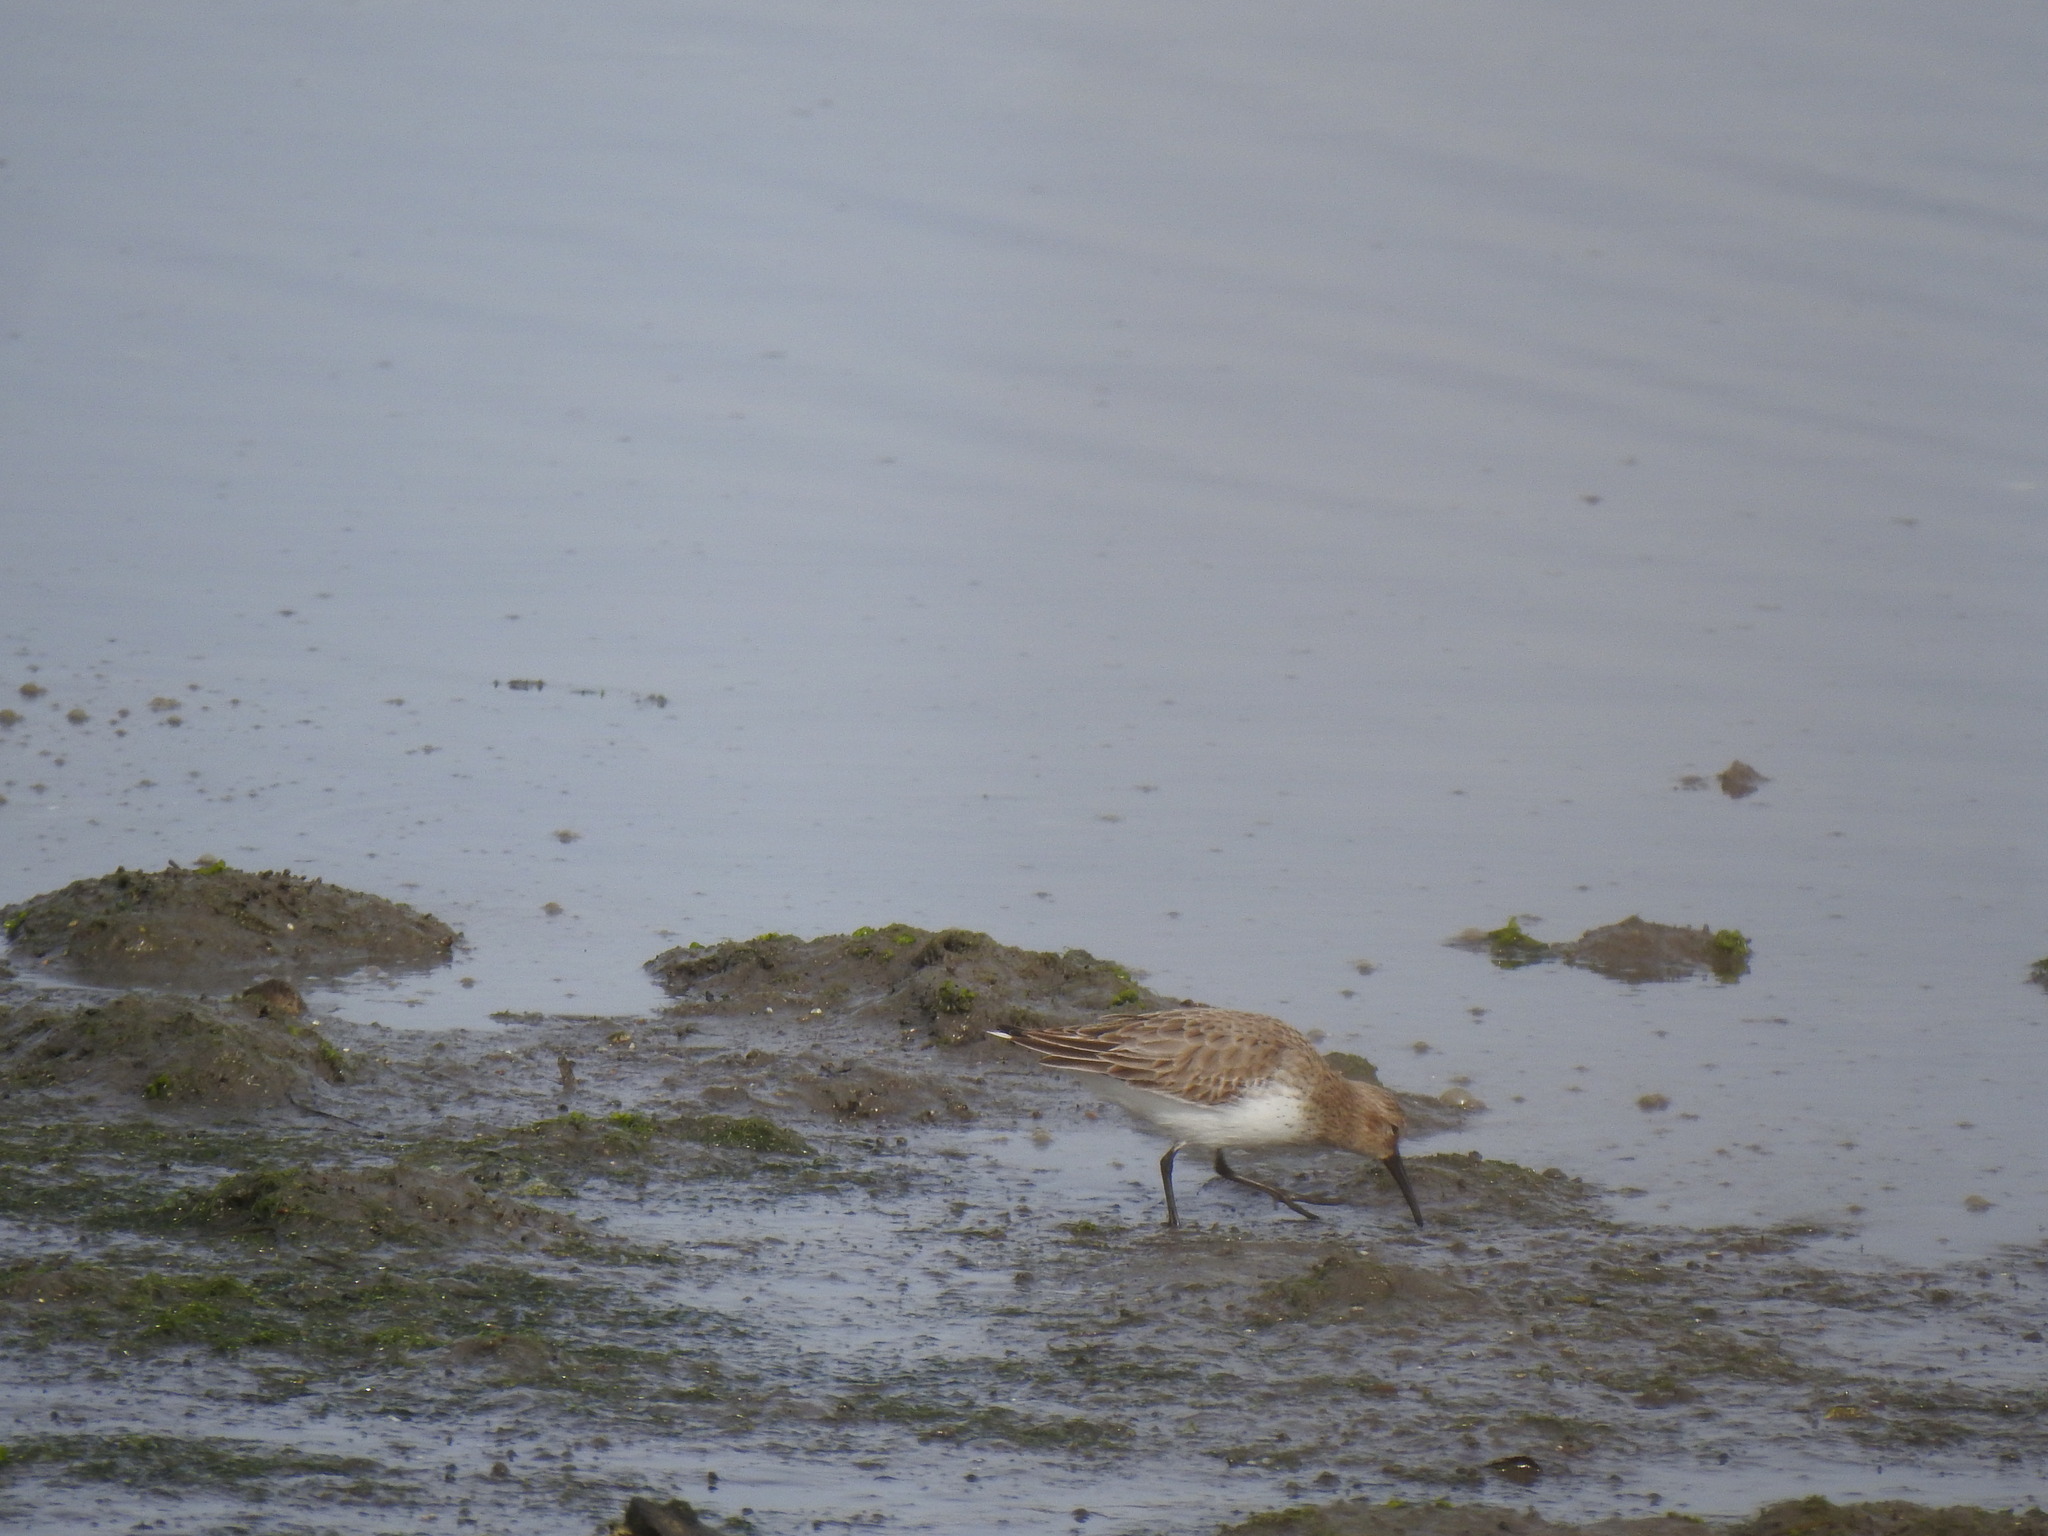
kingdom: Animalia
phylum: Chordata
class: Aves
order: Charadriiformes
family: Scolopacidae
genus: Calidris
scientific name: Calidris alpina
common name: Dunlin
